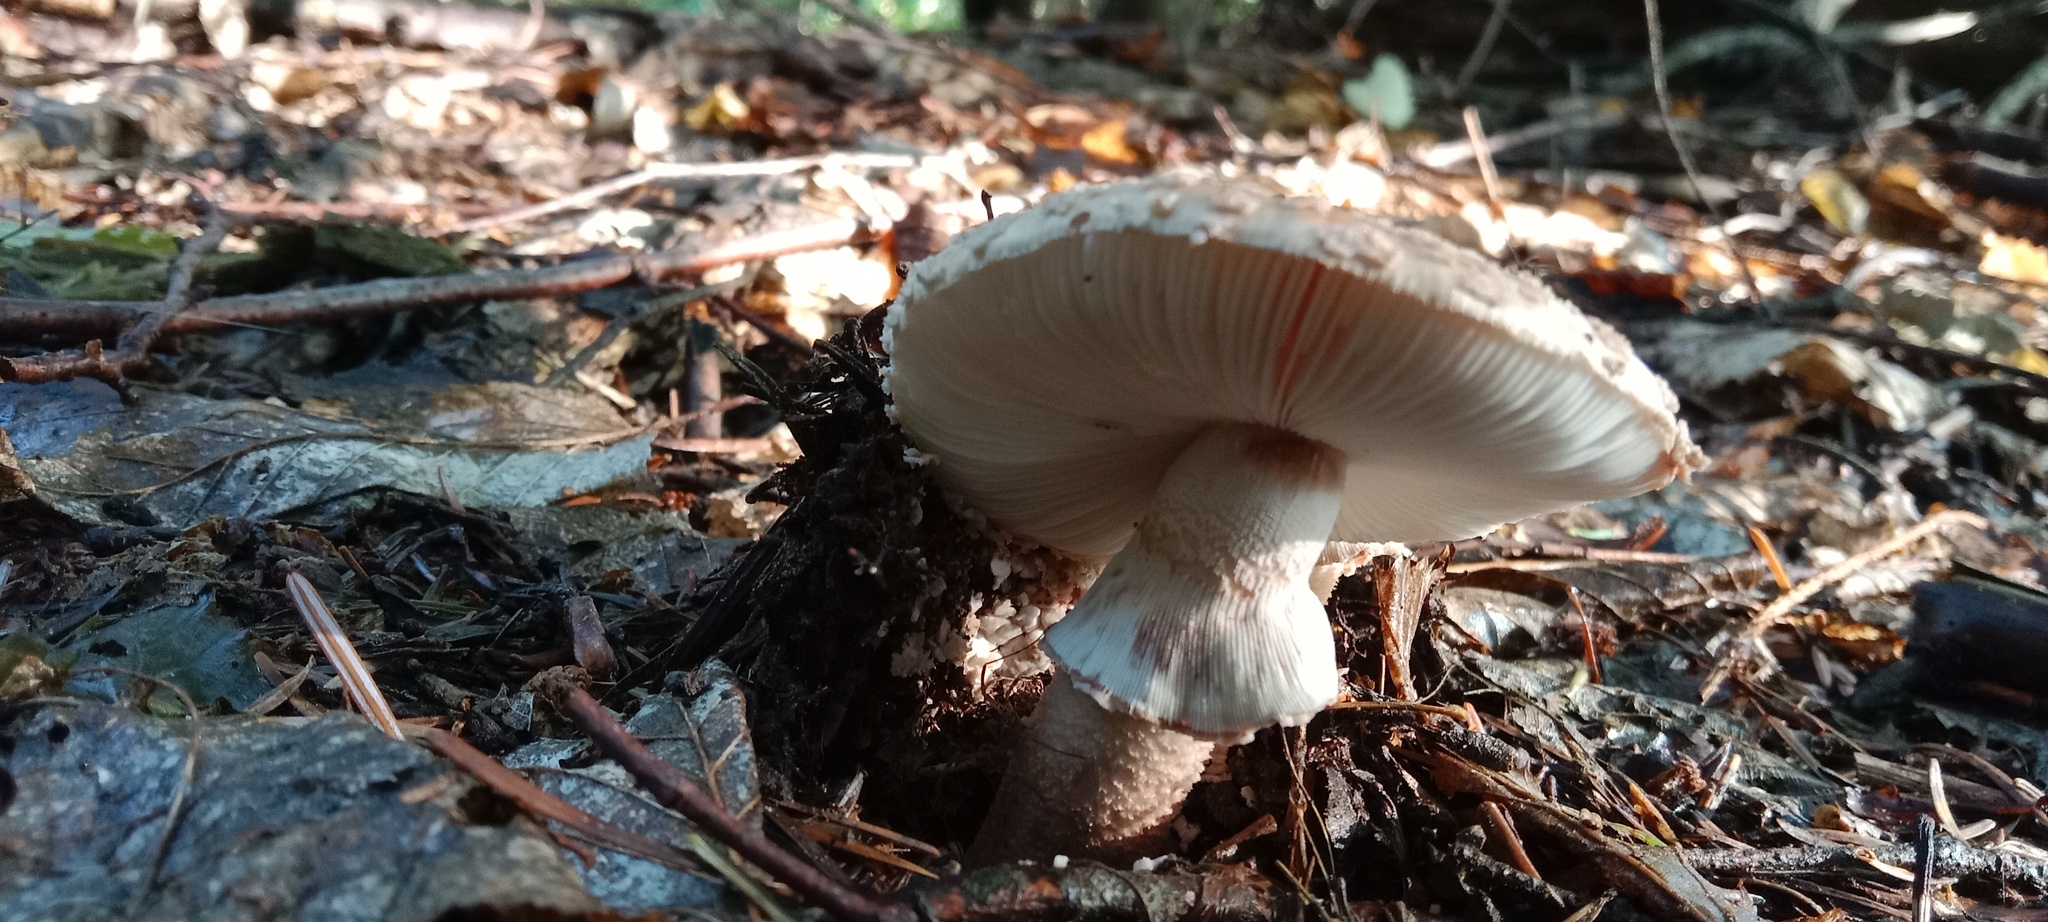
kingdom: Fungi
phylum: Basidiomycota
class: Agaricomycetes
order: Agaricales
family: Amanitaceae
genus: Amanita
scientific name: Amanita rubescens
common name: Blusher
